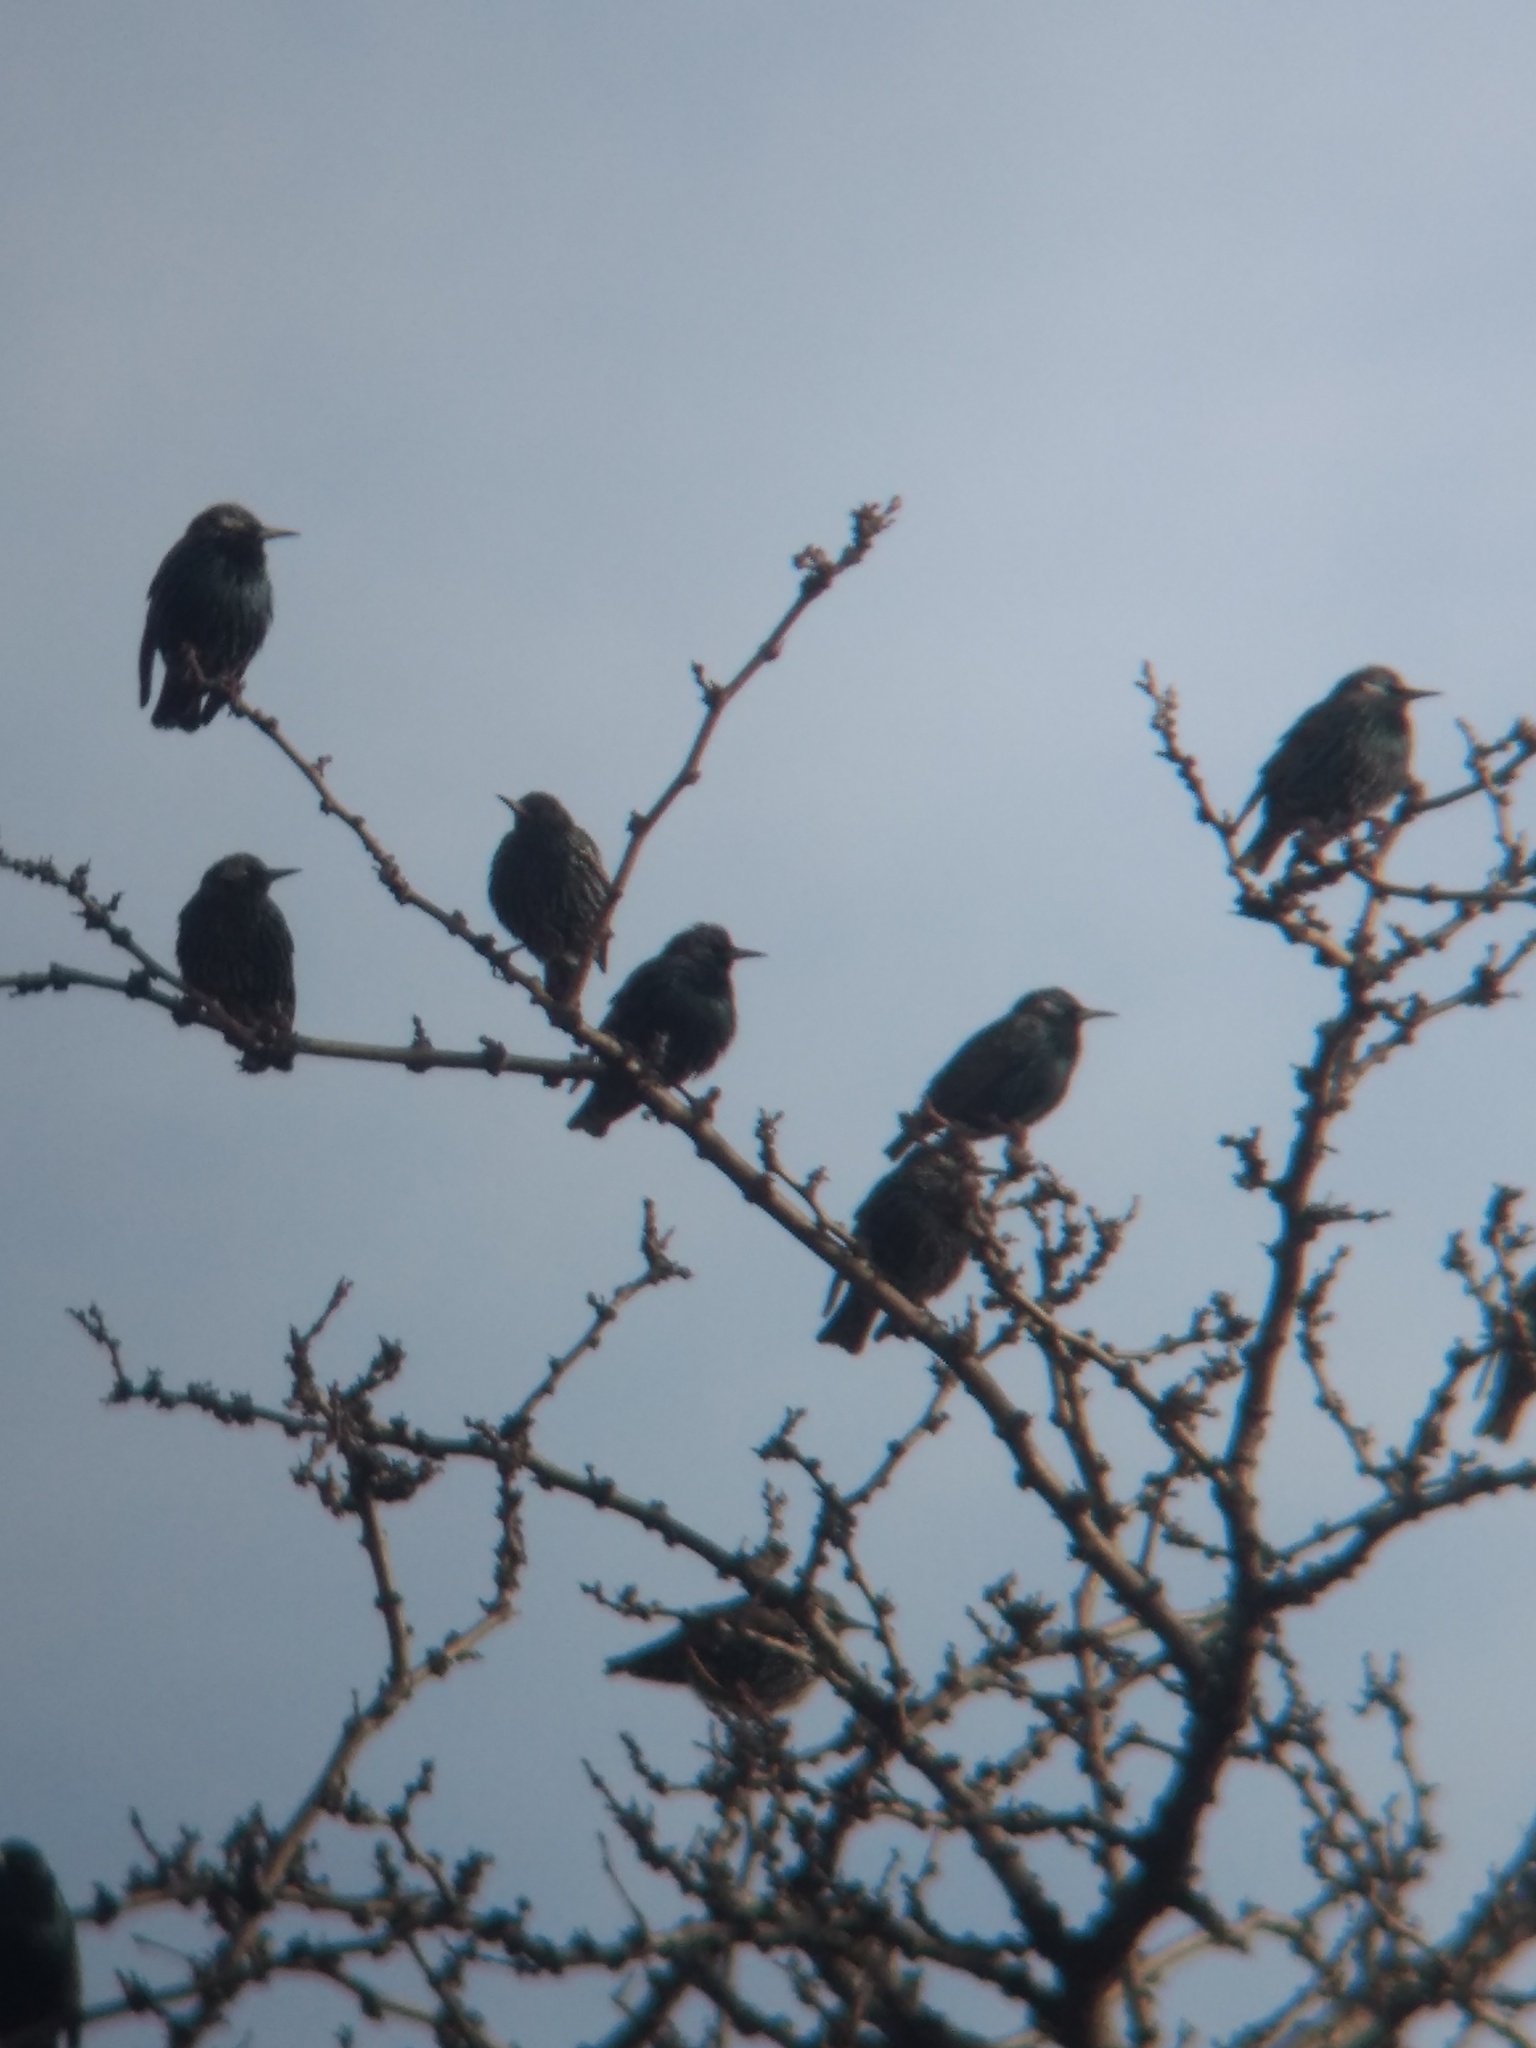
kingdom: Animalia
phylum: Chordata
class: Aves
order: Passeriformes
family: Sturnidae
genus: Sturnus
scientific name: Sturnus vulgaris
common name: Common starling
